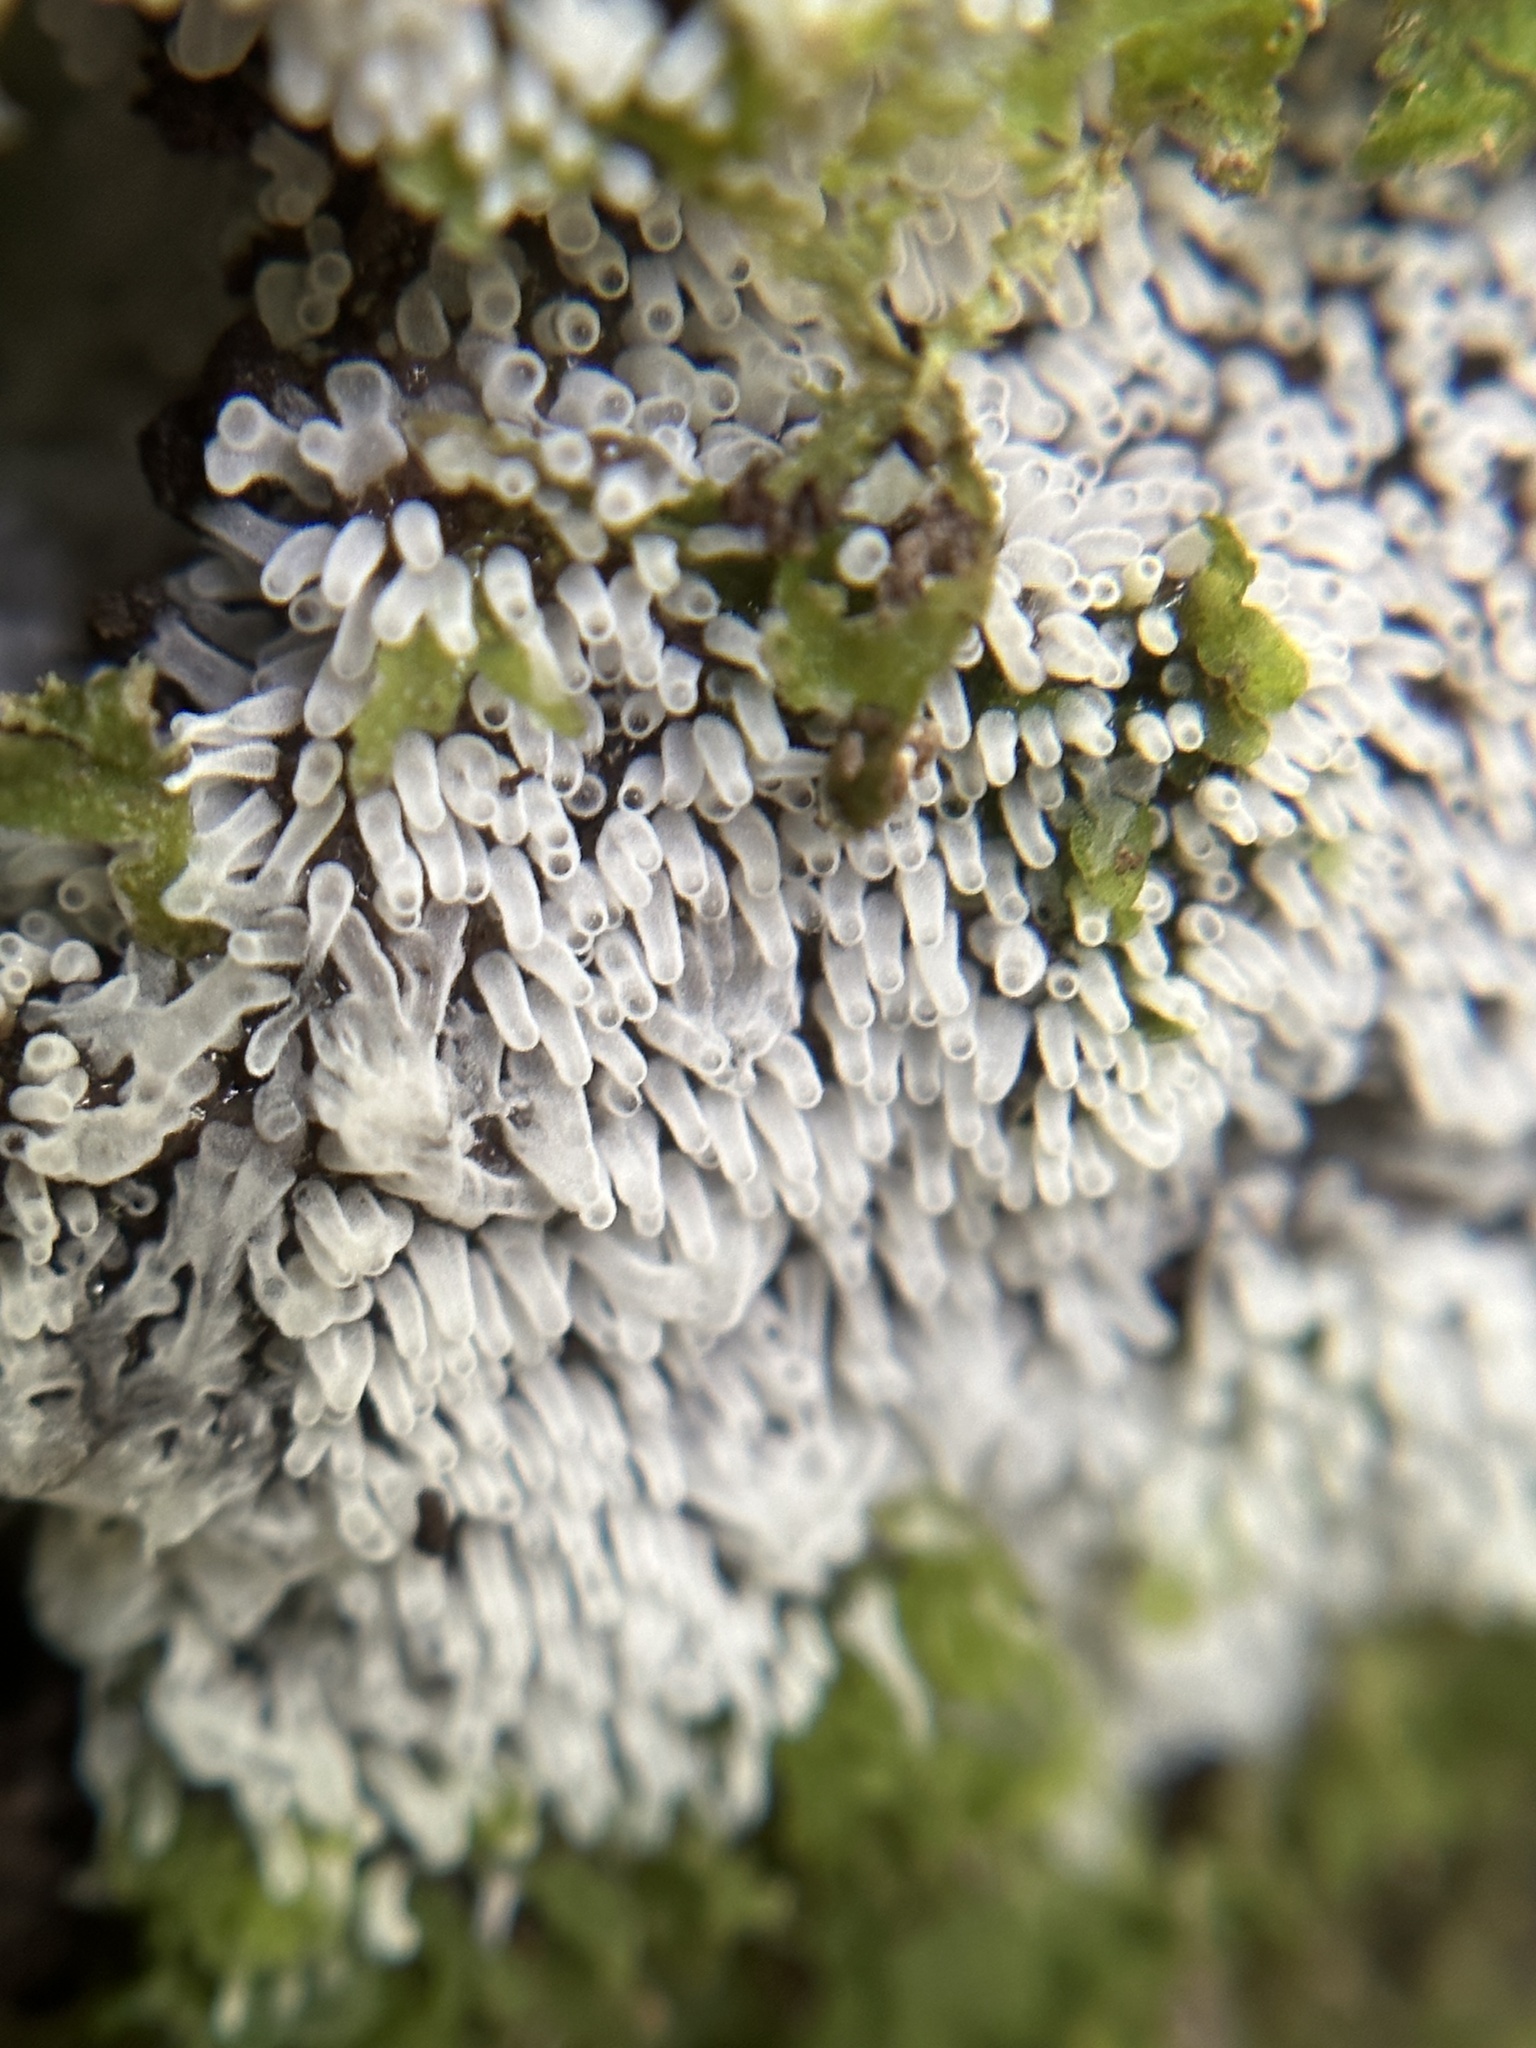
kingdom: Protozoa
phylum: Mycetozoa
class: Protosteliomycetes
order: Ceratiomyxales
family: Ceratiomyxaceae
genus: Ceratiomyxa
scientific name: Ceratiomyxa fruticulosa
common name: Honeycomb coral slime mold
